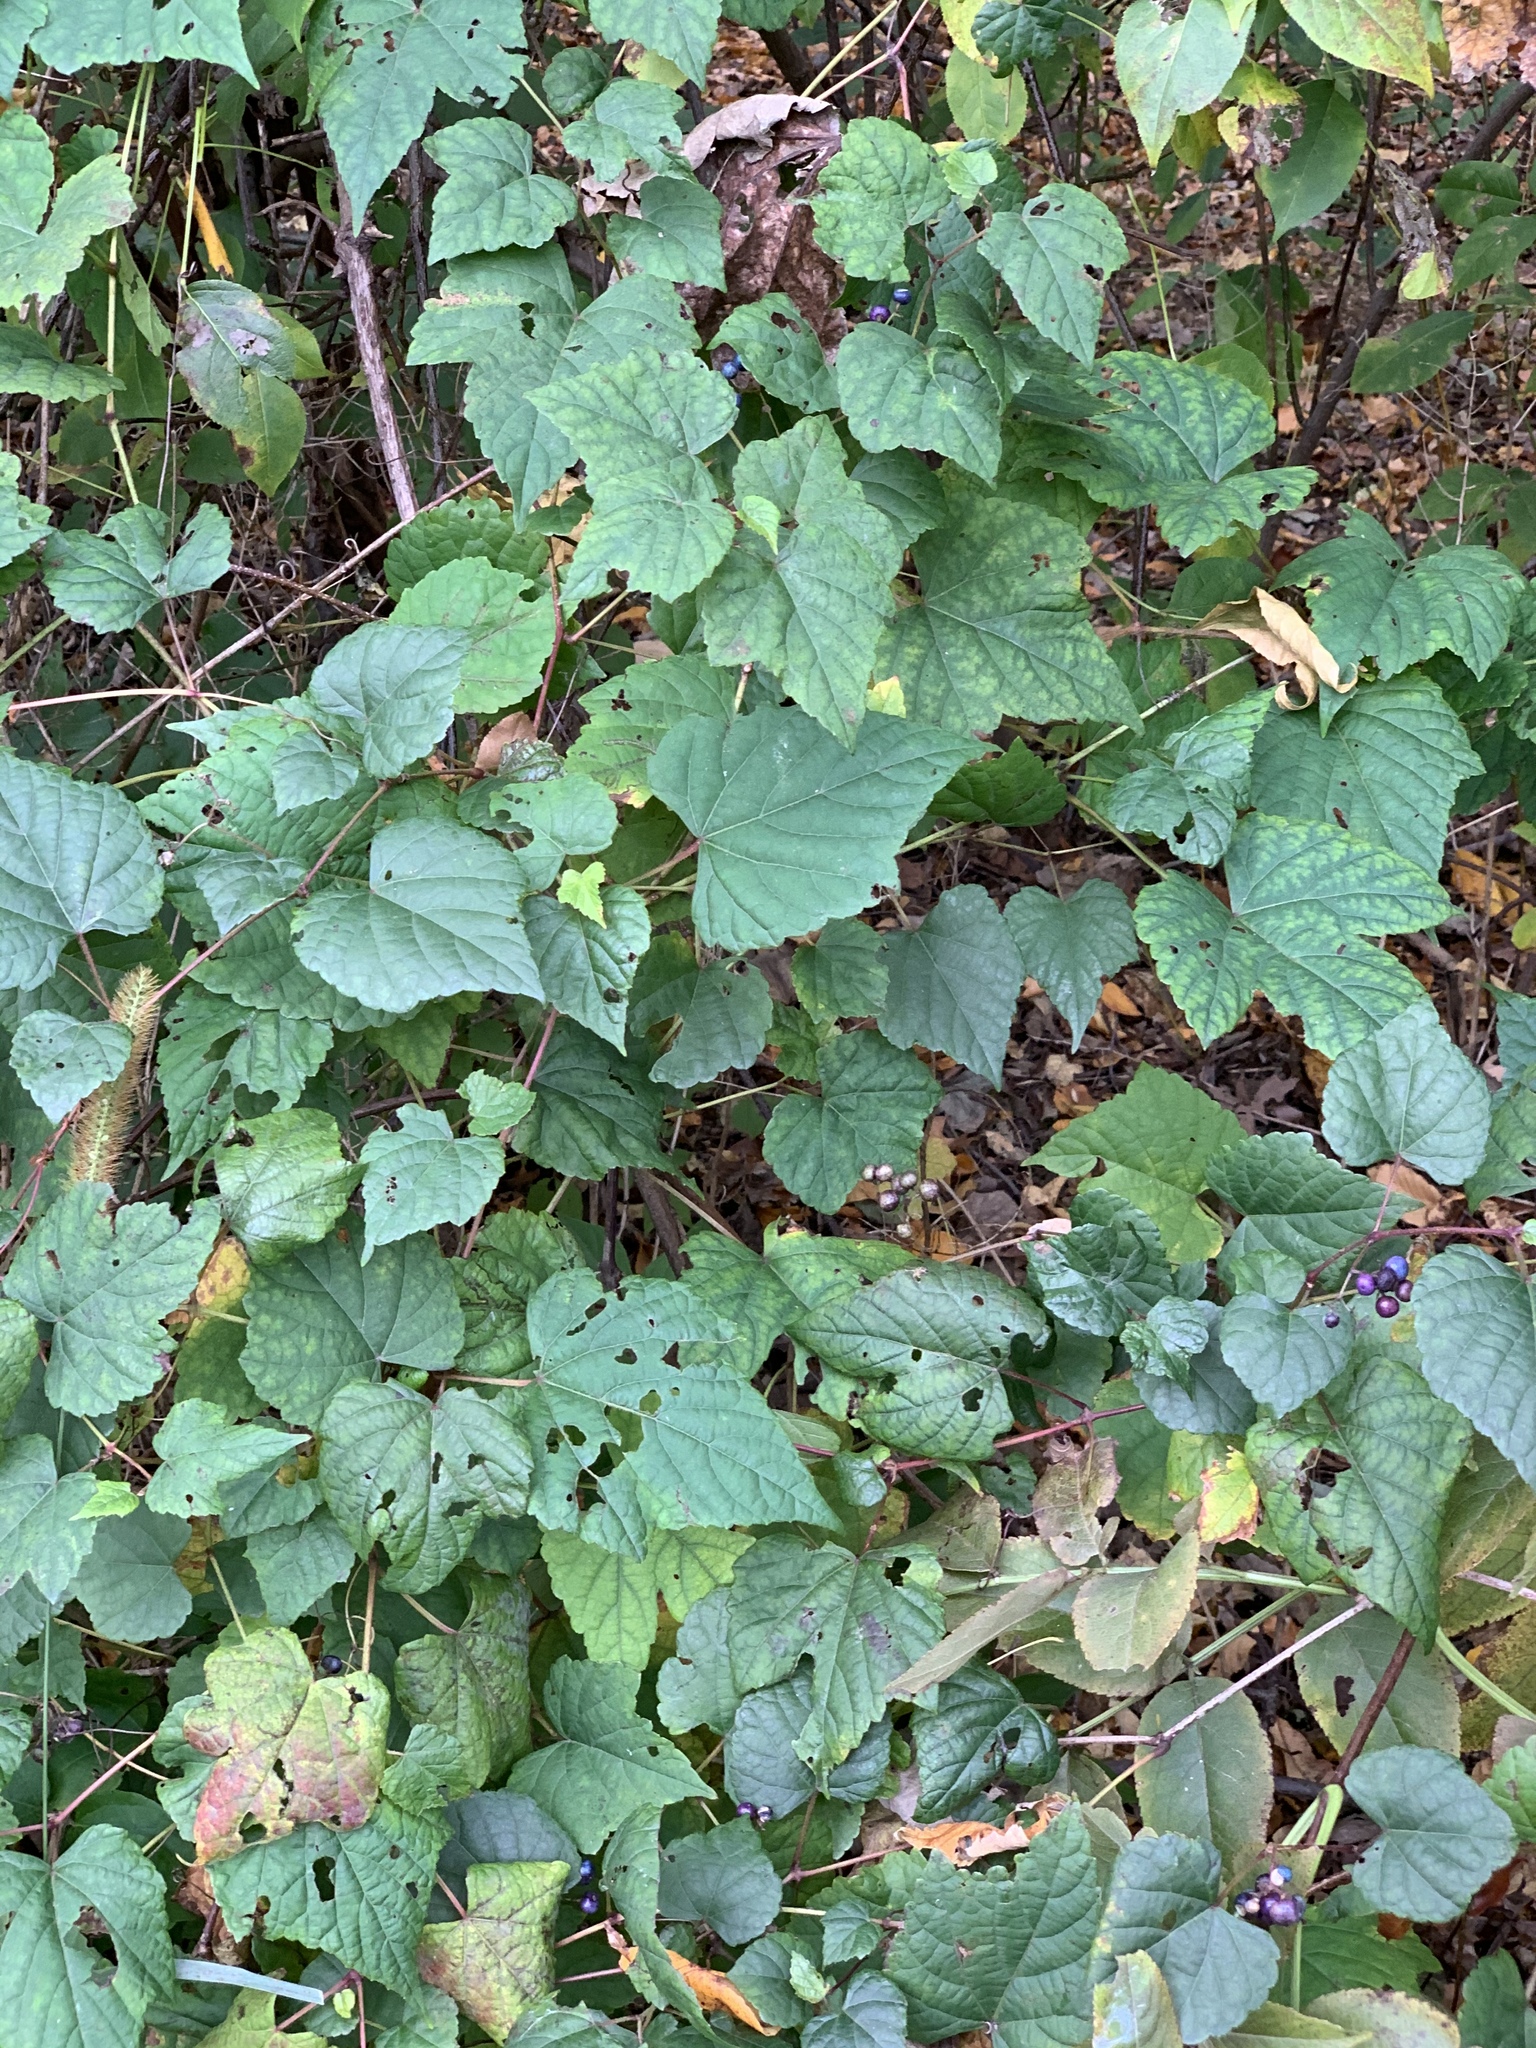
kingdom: Plantae
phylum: Tracheophyta
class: Magnoliopsida
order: Vitales
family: Vitaceae
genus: Ampelopsis
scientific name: Ampelopsis glandulosa
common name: Amur peppervine
